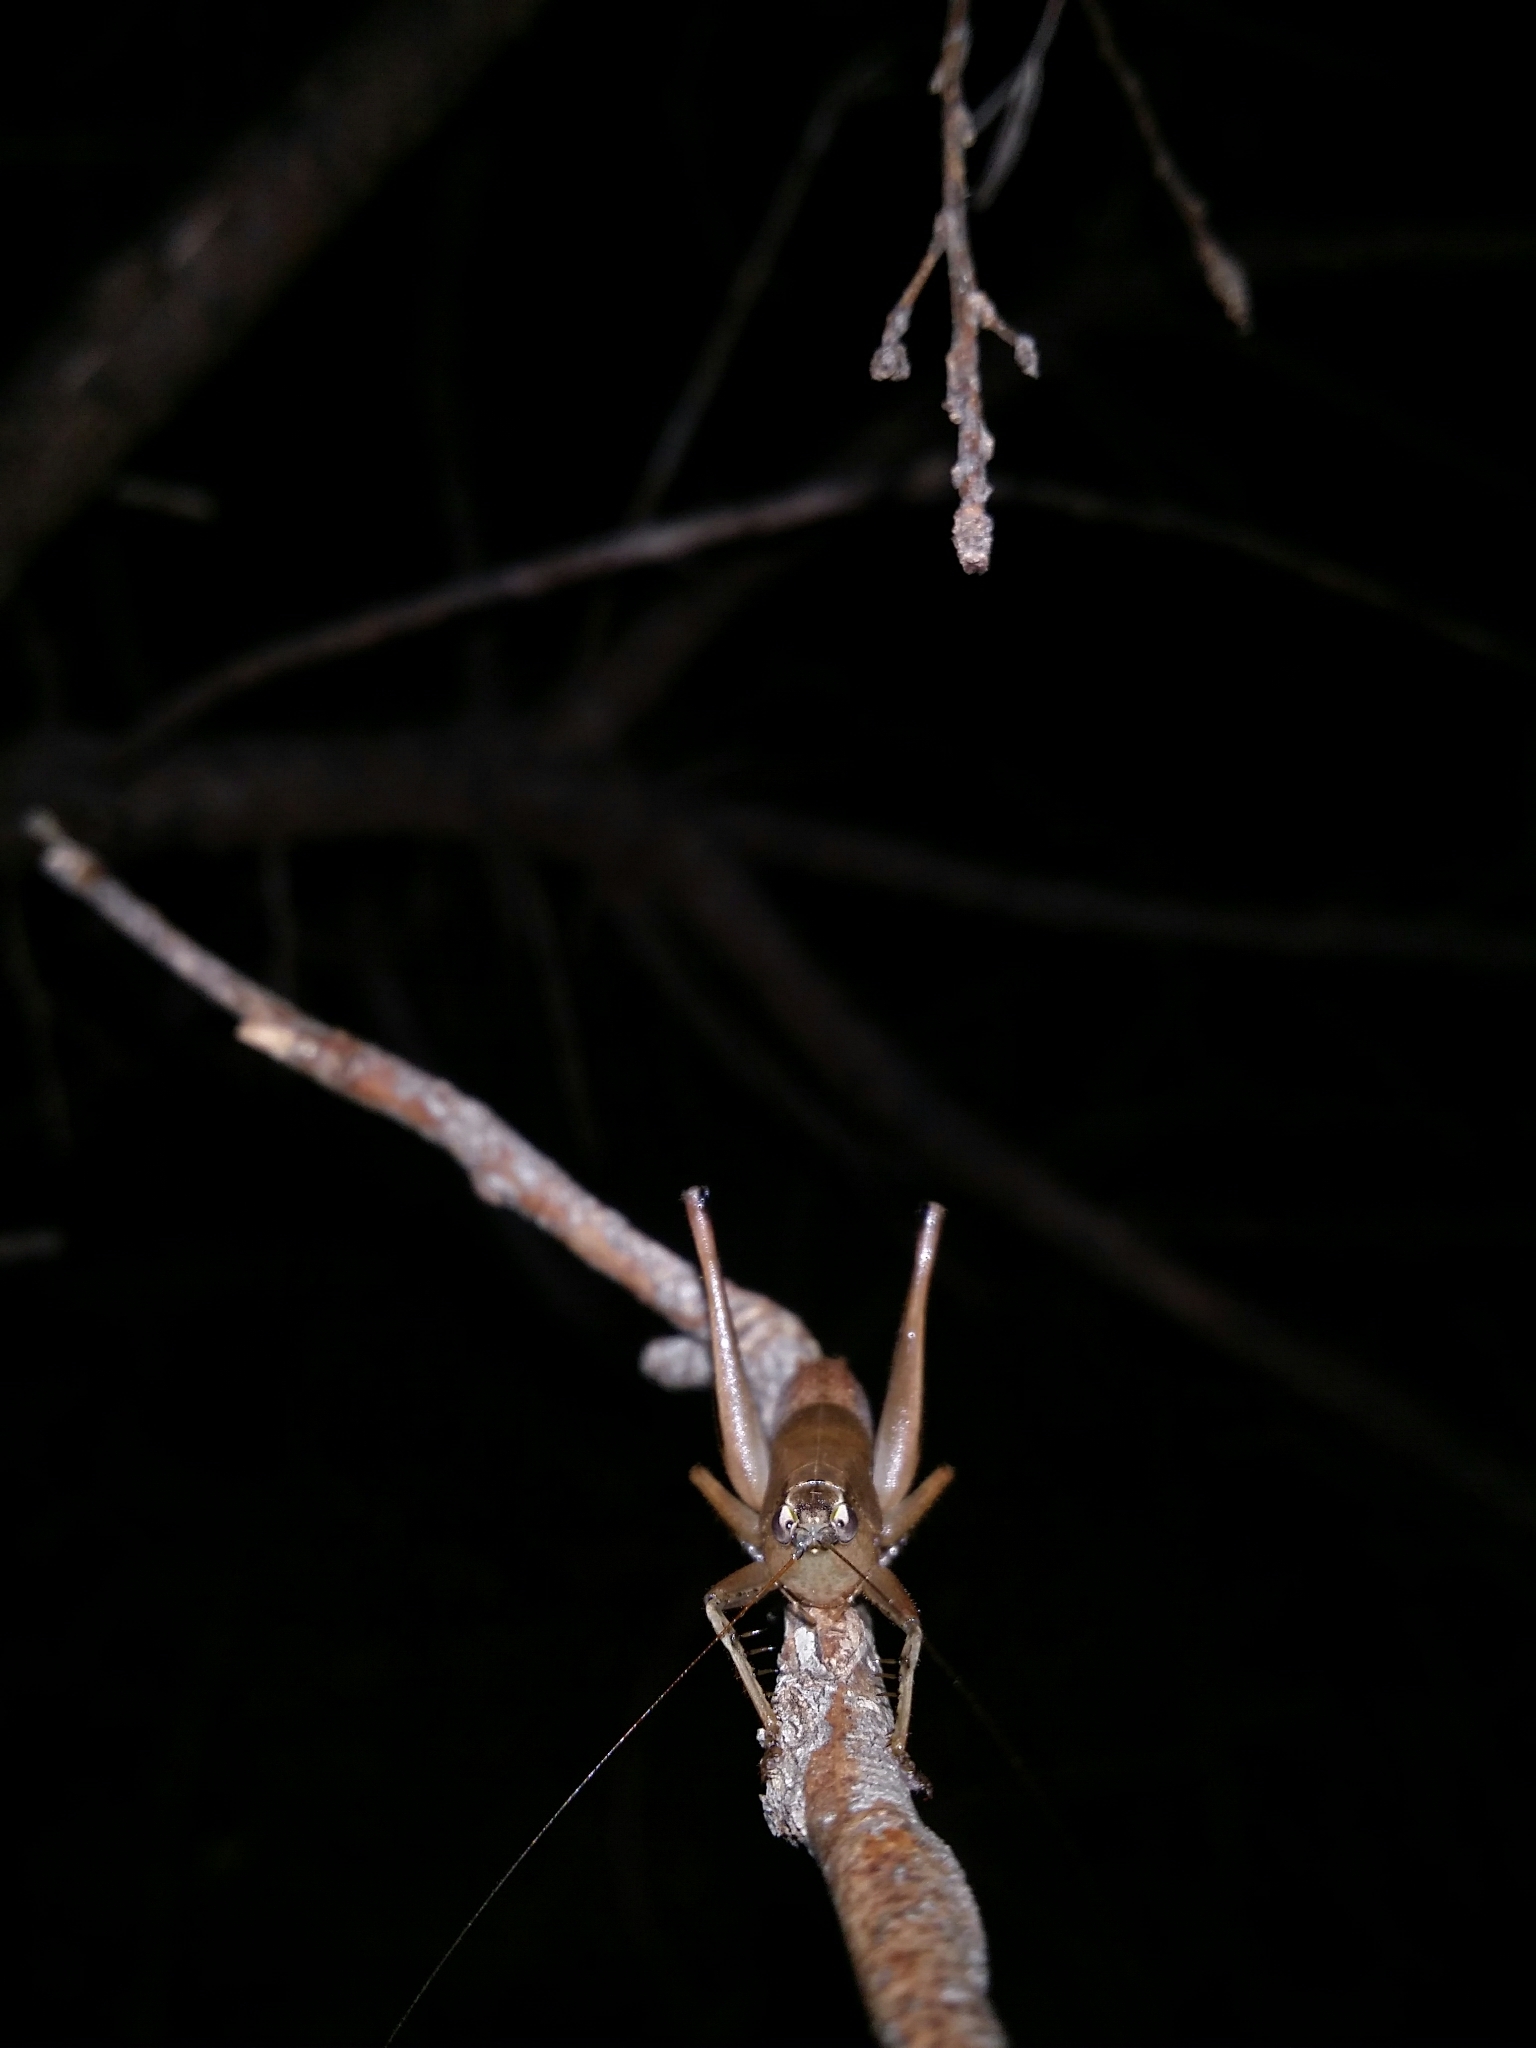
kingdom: Animalia
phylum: Arthropoda
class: Insecta
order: Orthoptera
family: Tettigoniidae
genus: Requena
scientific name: Requena verticalis
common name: Common western requena
